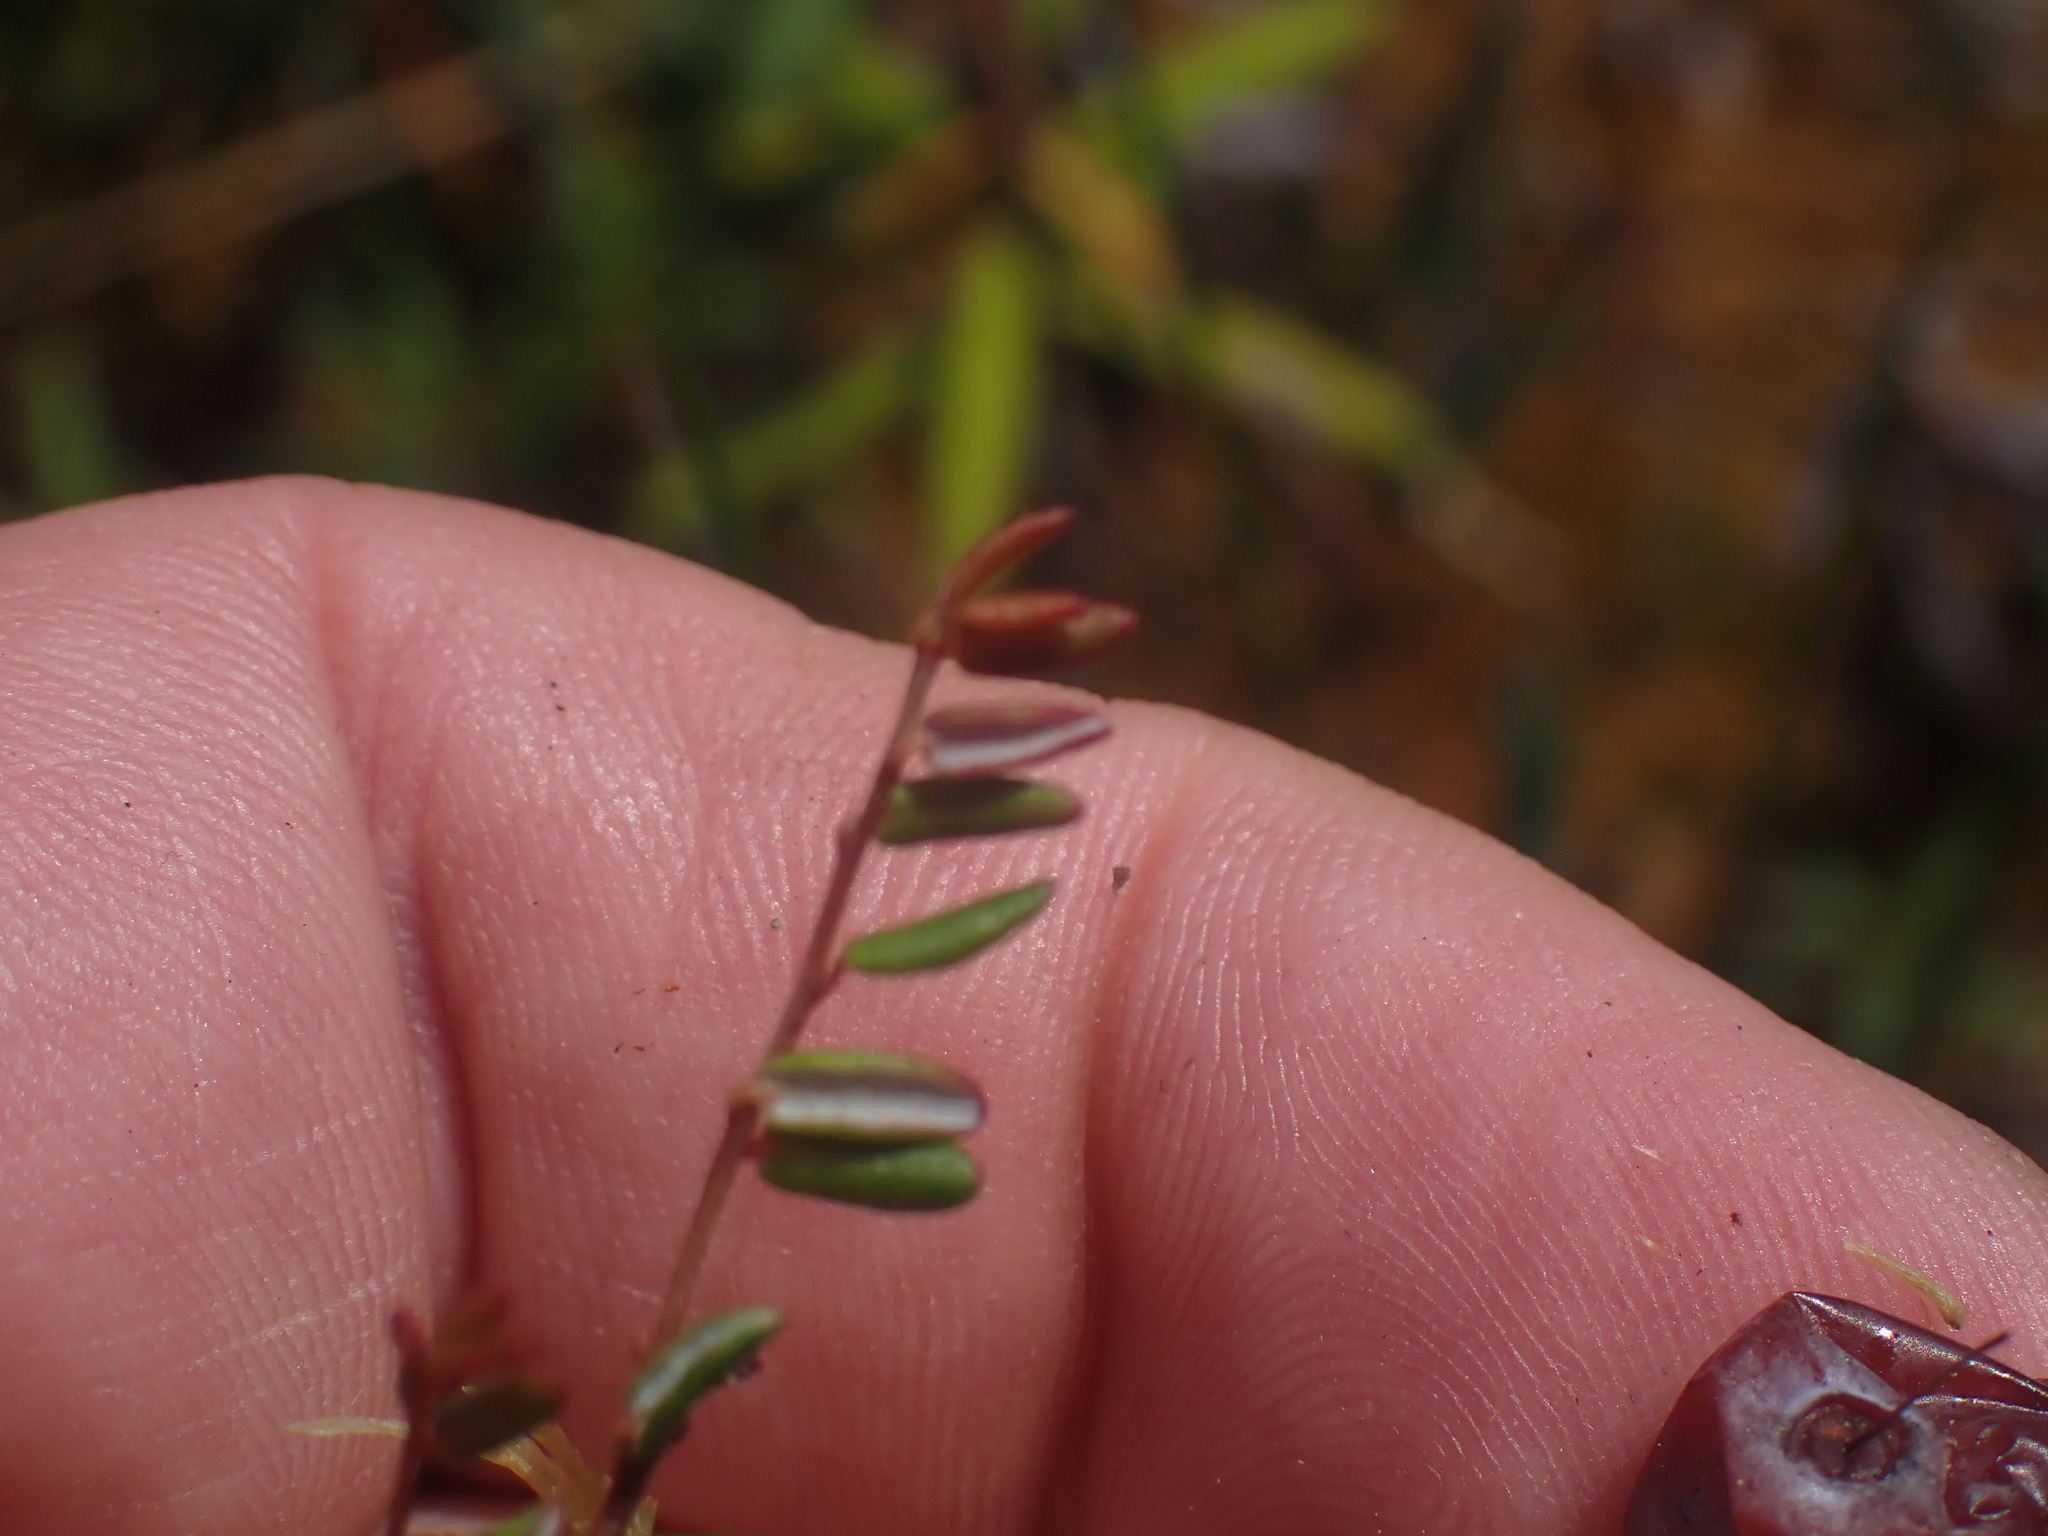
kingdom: Plantae
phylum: Tracheophyta
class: Magnoliopsida
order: Ericales
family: Ericaceae
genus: Vaccinium
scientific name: Vaccinium oxycoccos
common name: Cranberry
